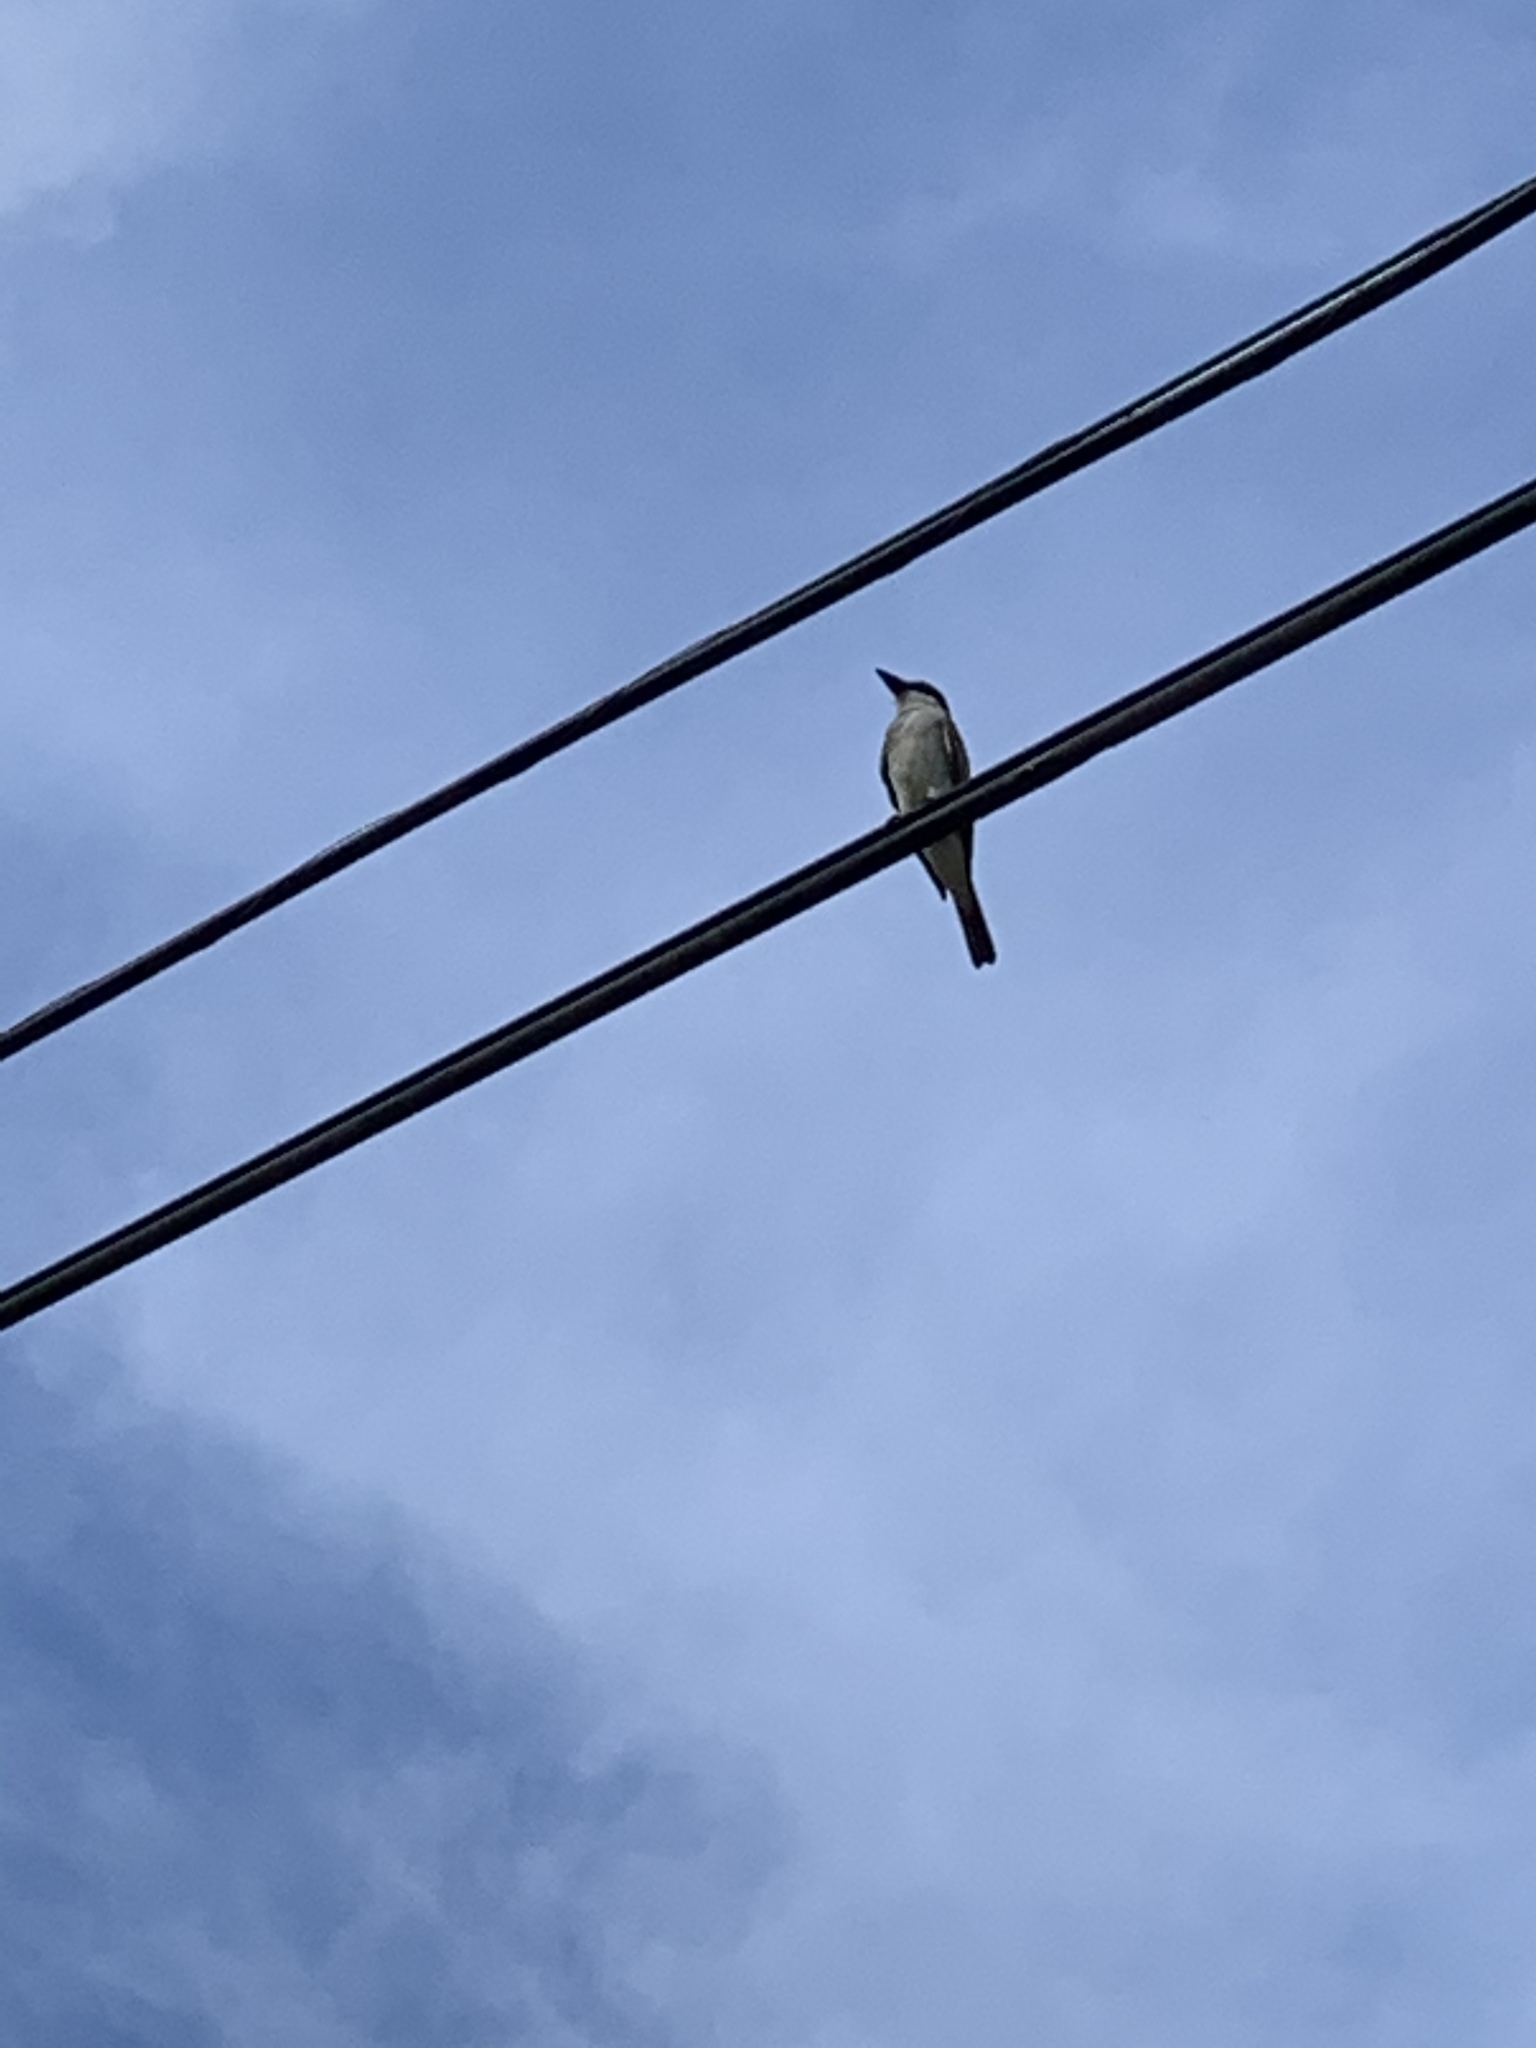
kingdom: Animalia
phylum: Chordata
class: Aves
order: Passeriformes
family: Tyrannidae
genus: Tyrannus
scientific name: Tyrannus dominicensis
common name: Gray kingbird
